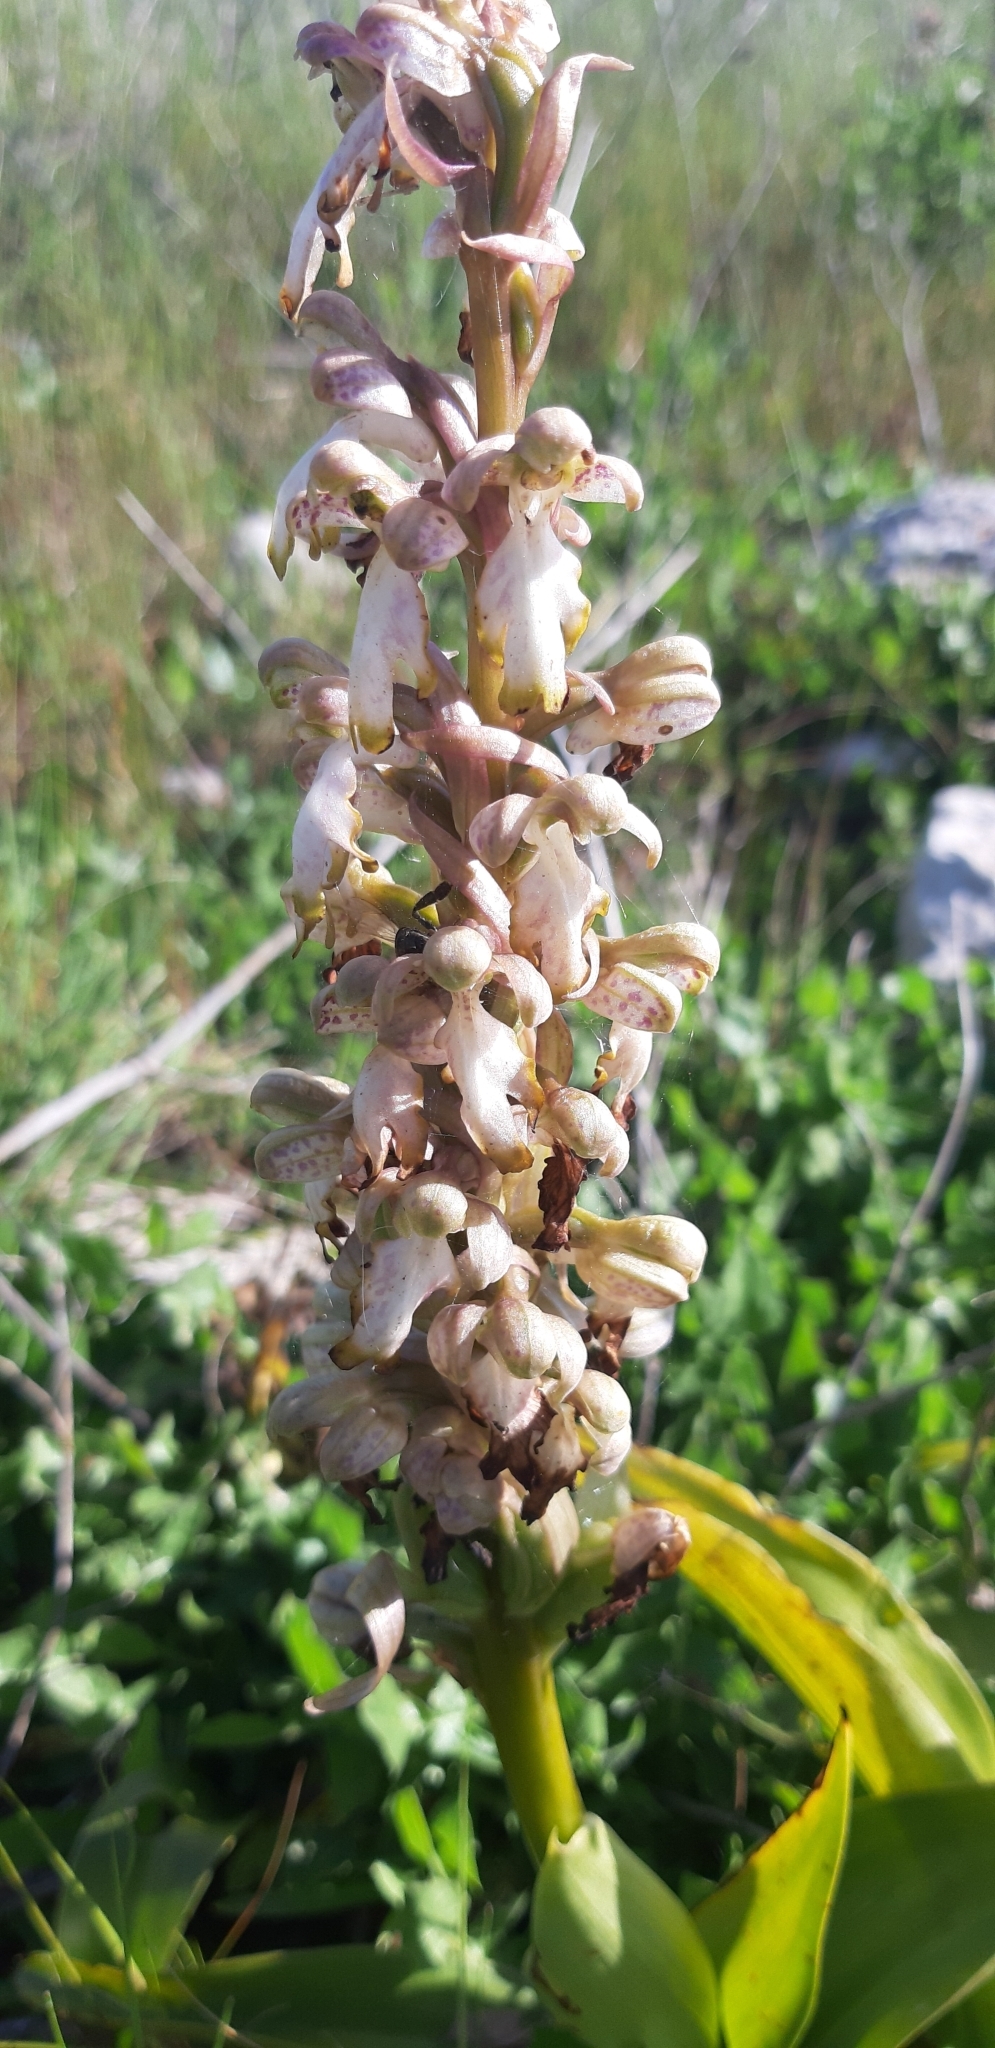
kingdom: Plantae
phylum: Tracheophyta
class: Liliopsida
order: Asparagales
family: Orchidaceae
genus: Himantoglossum
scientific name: Himantoglossum robertianum
